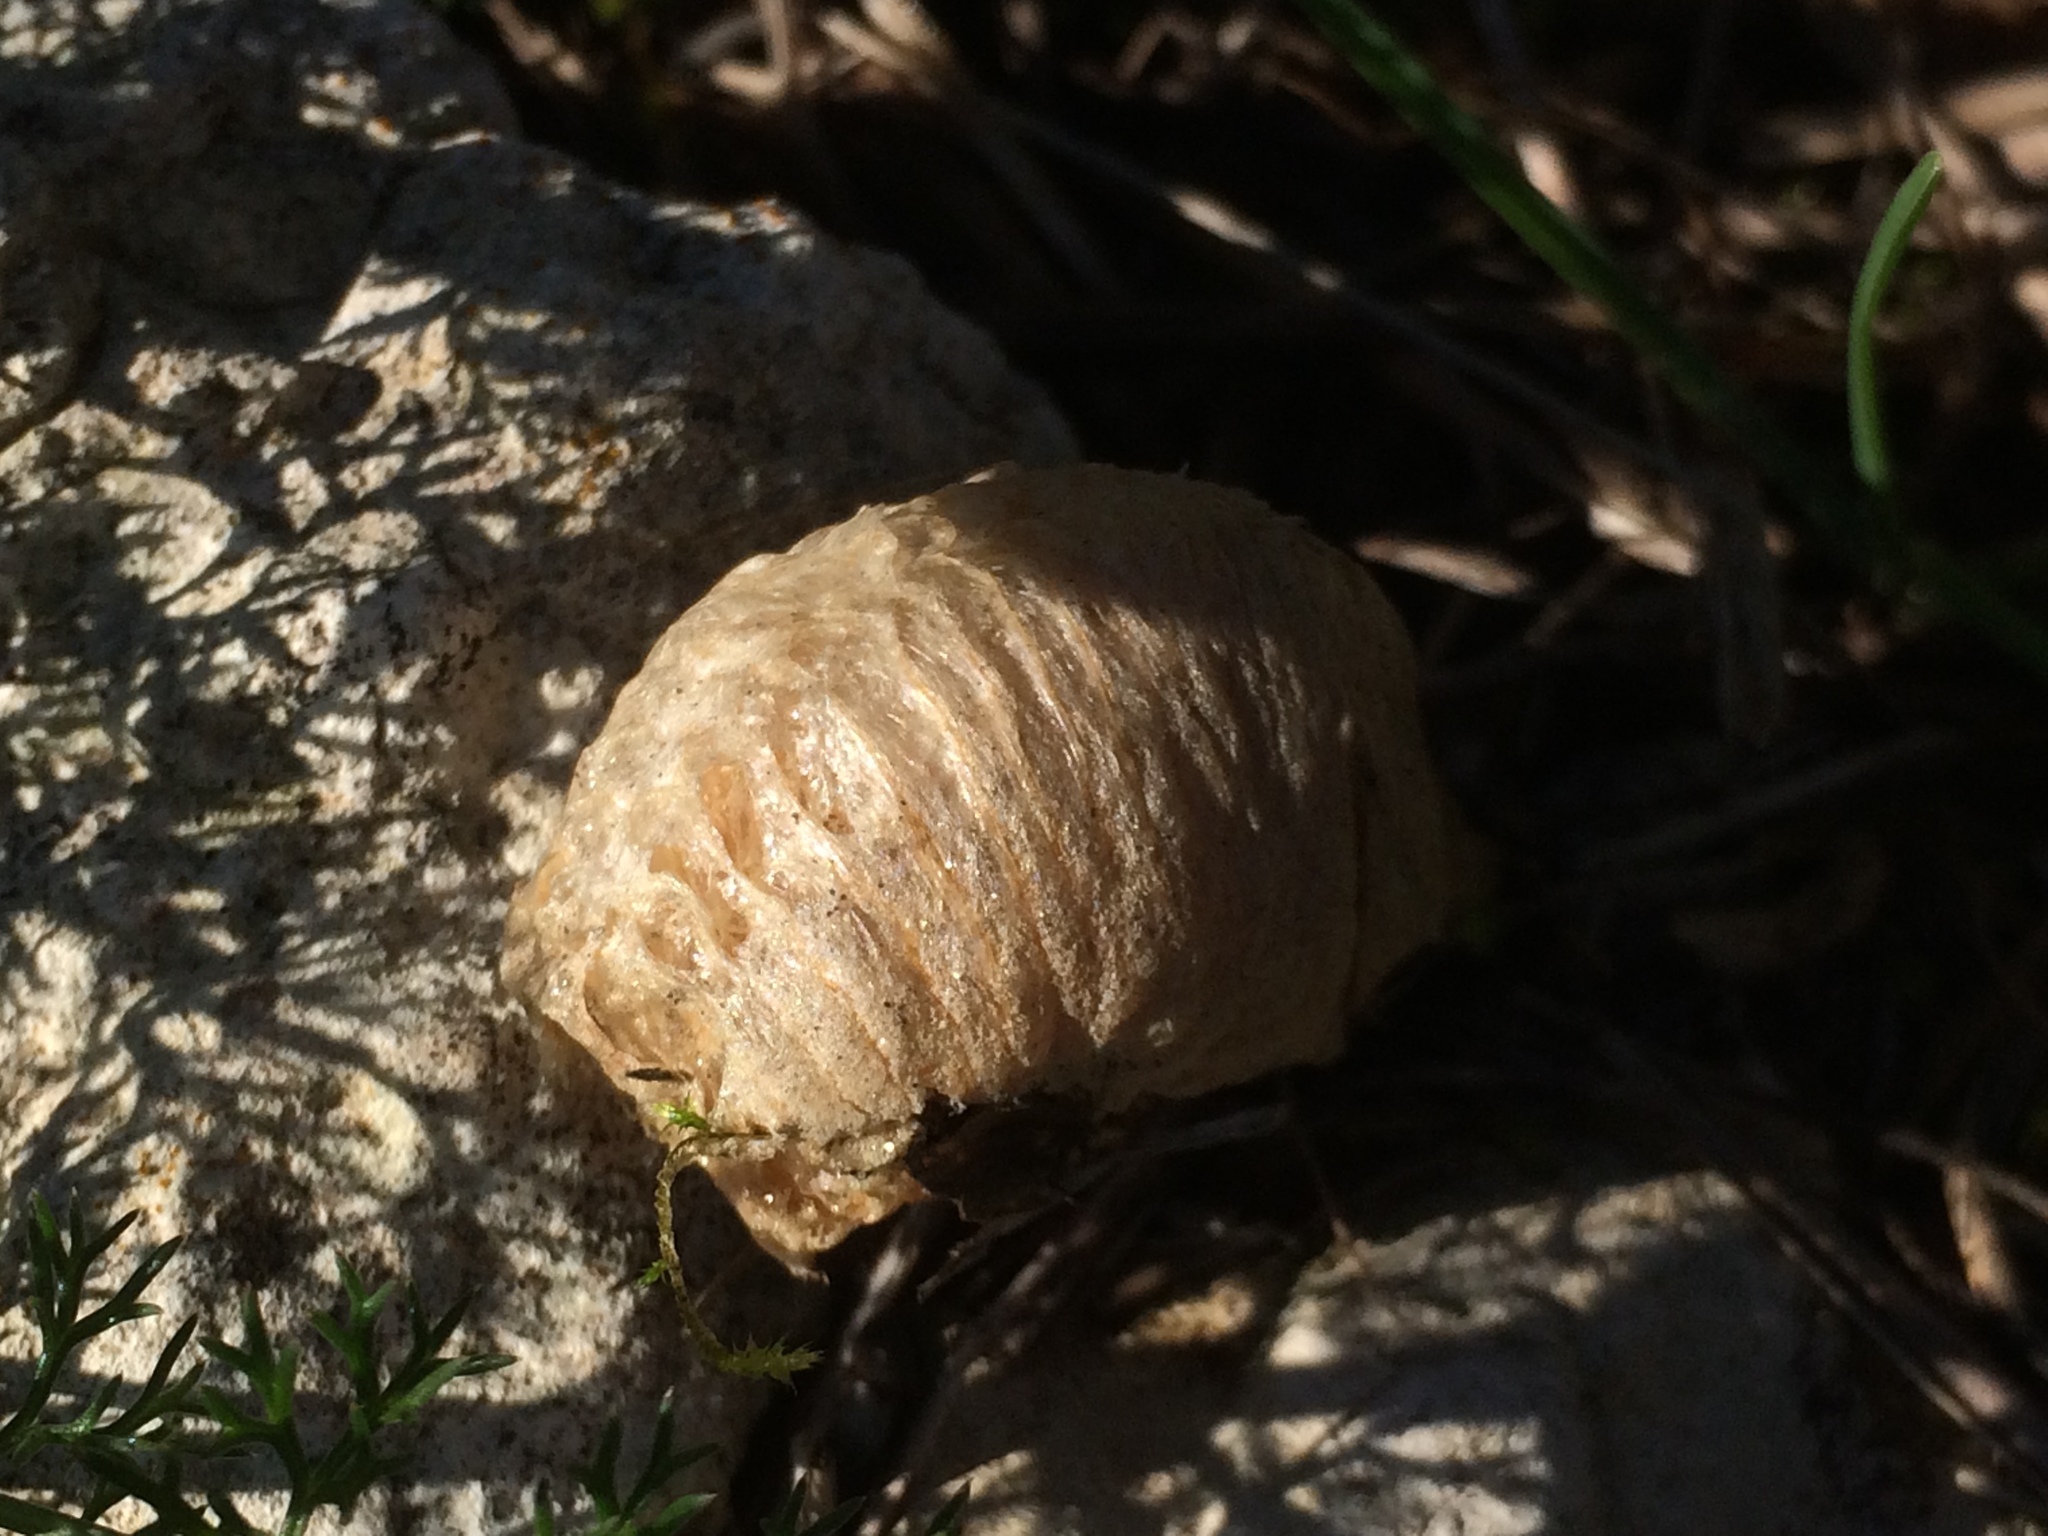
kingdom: Animalia
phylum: Arthropoda
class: Insecta
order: Mantodea
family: Mantidae
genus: Mantis
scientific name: Mantis religiosa
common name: Praying mantis
